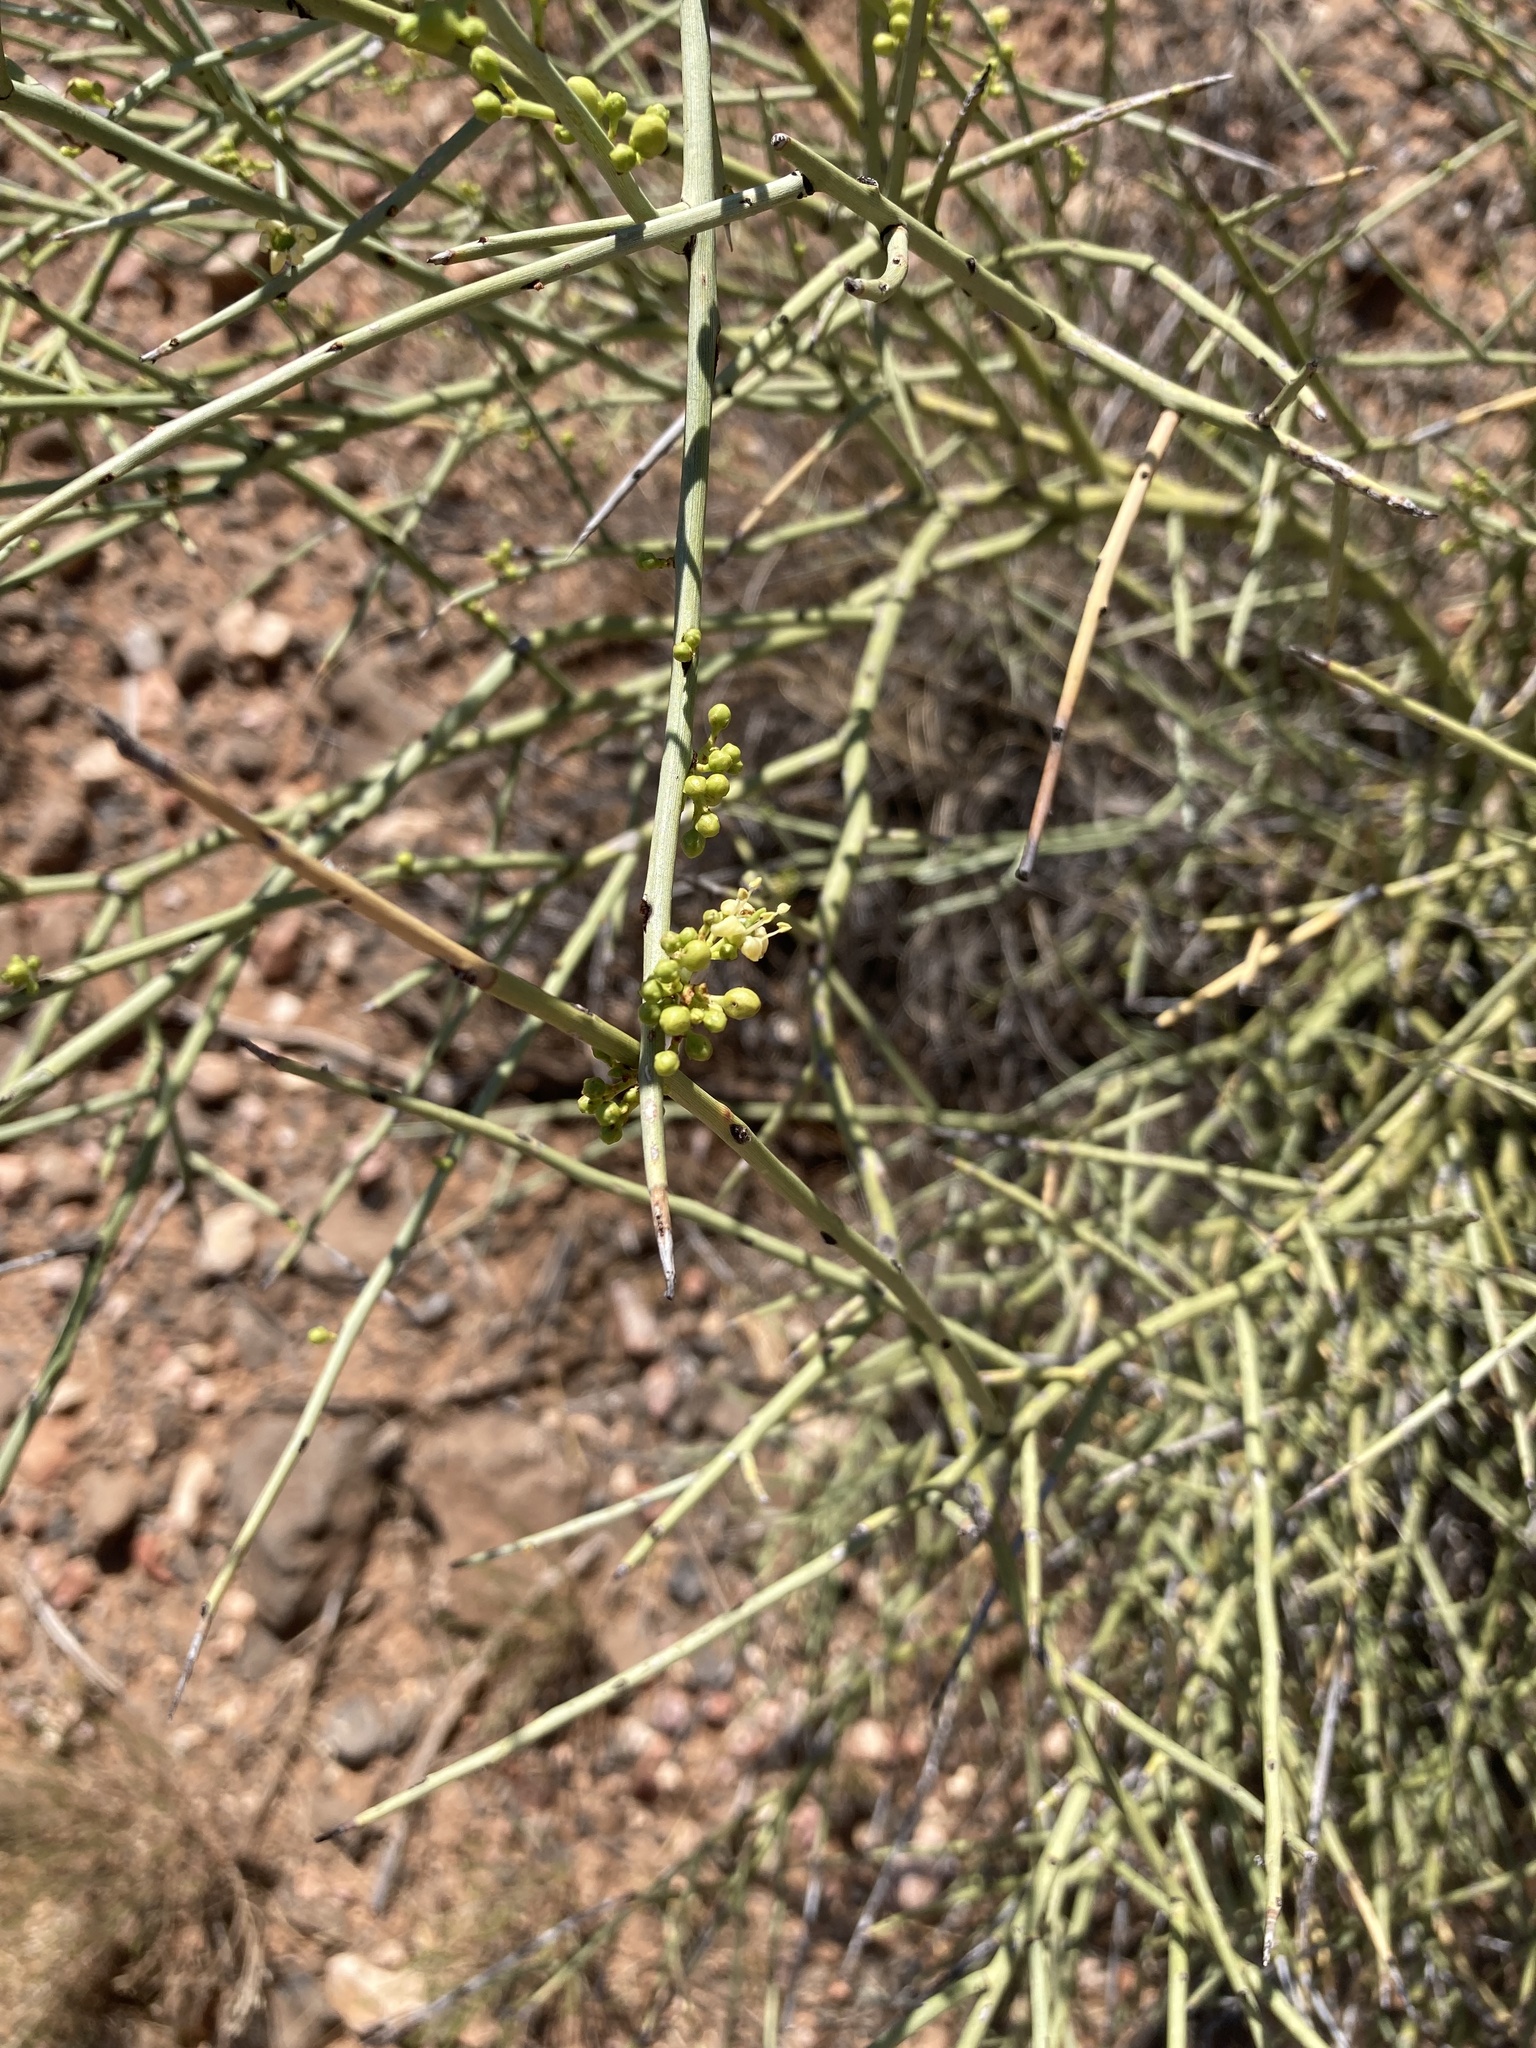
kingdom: Plantae
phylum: Tracheophyta
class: Magnoliopsida
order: Celastrales
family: Celastraceae
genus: Canotia
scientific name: Canotia holacantha
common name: Crucifixion thorns
